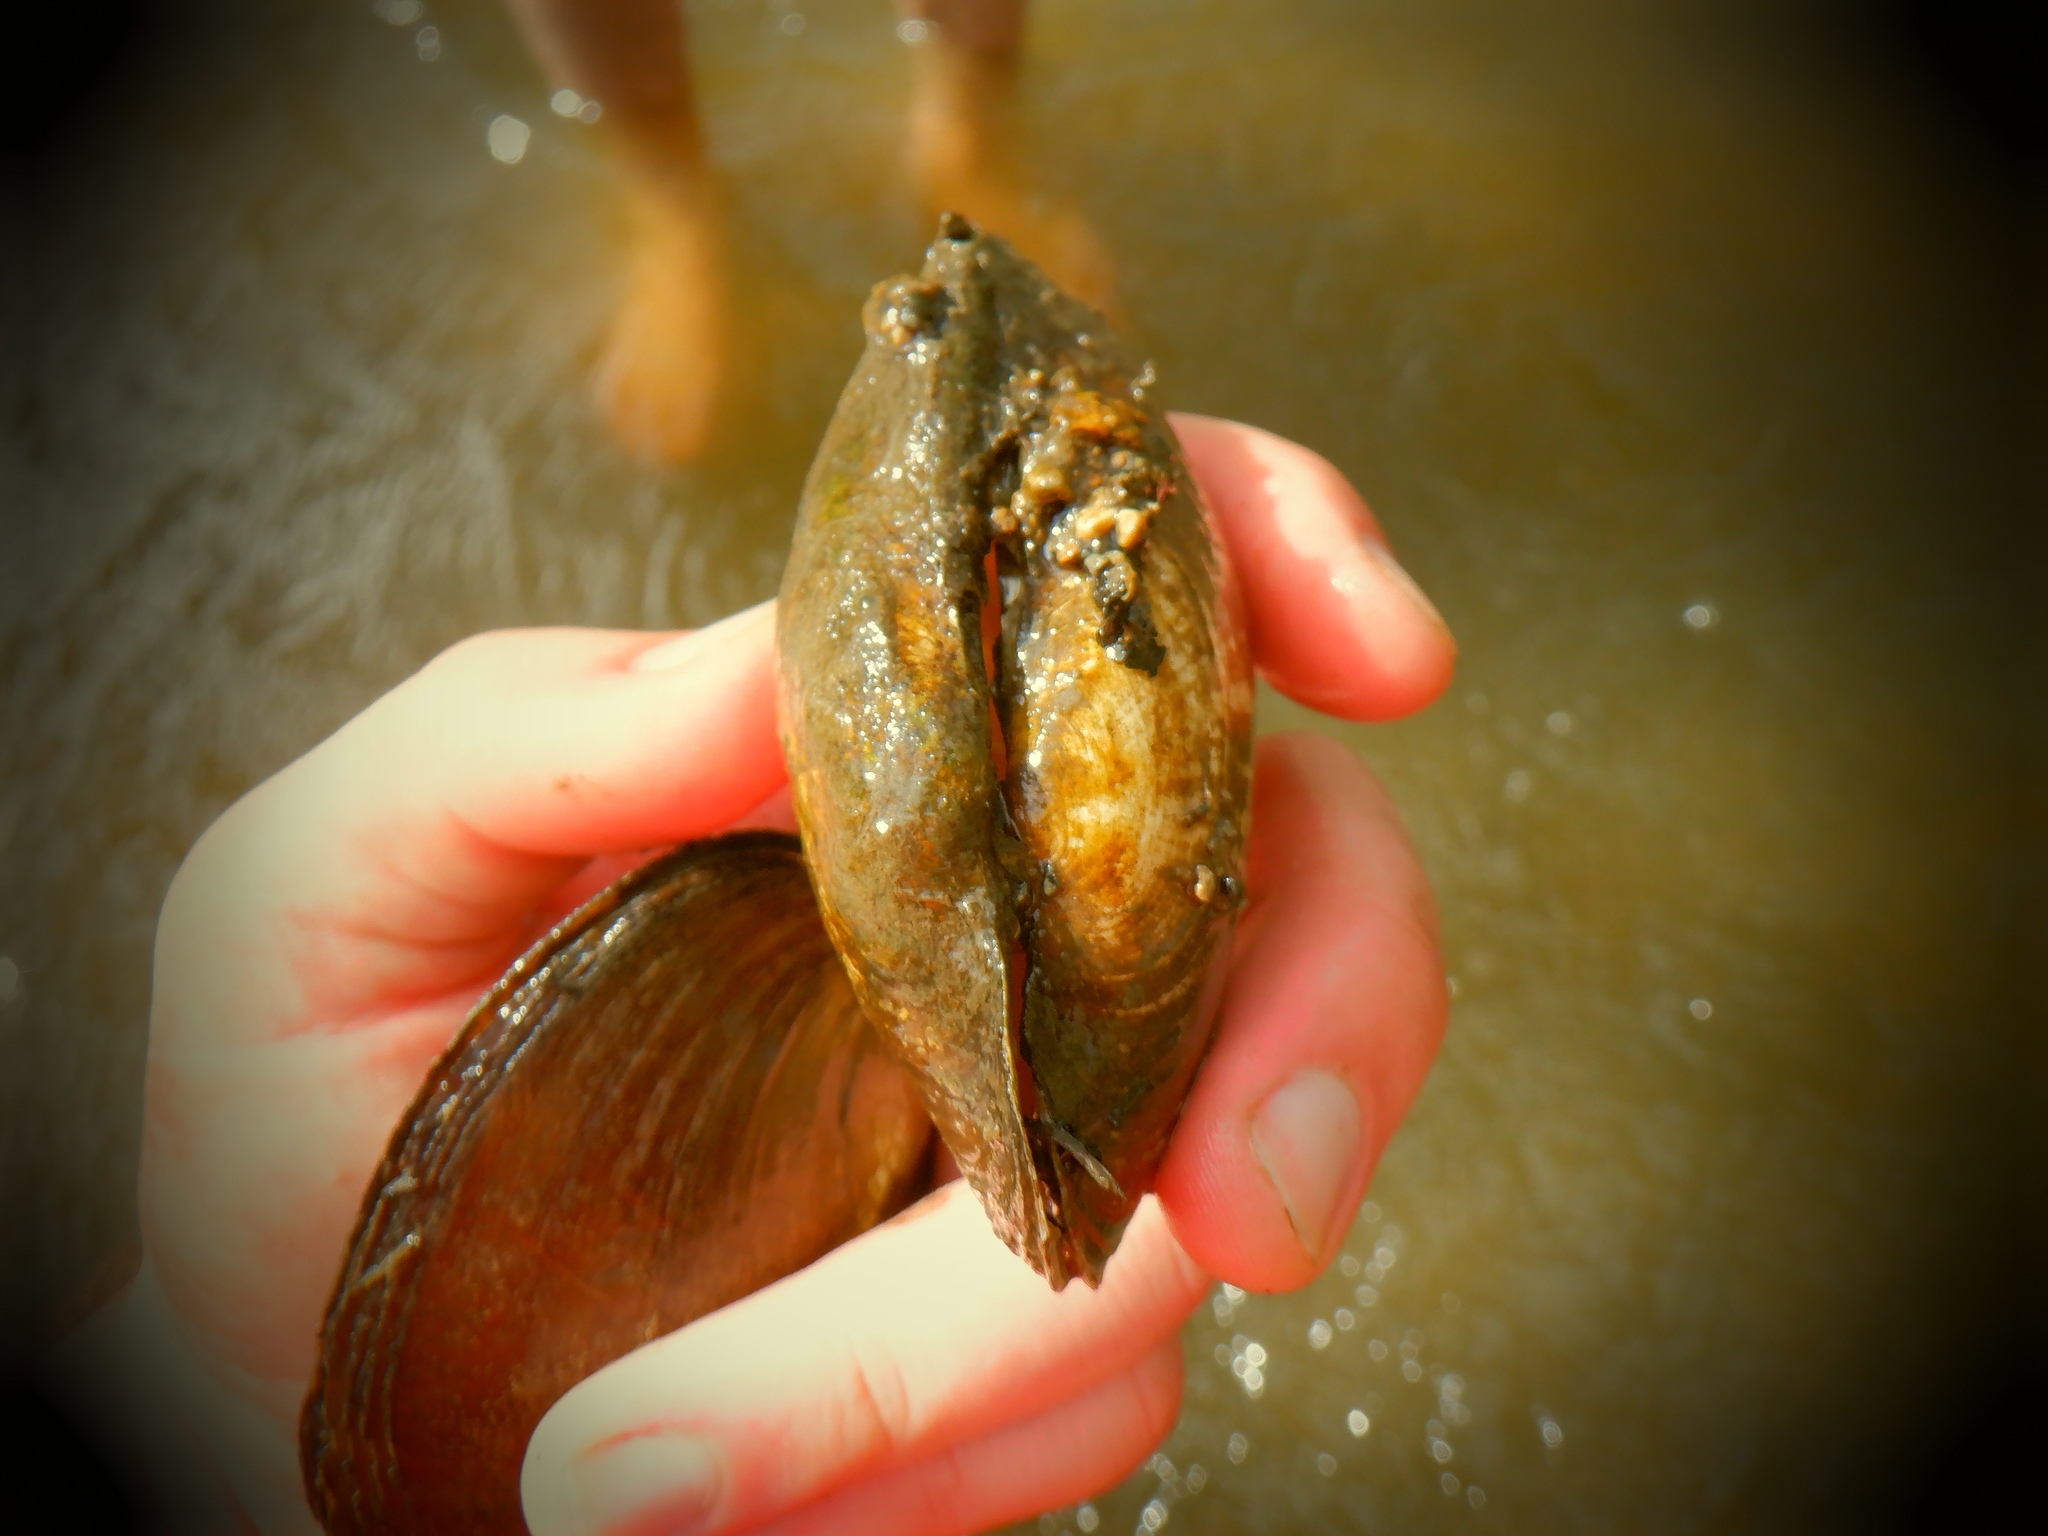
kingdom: Animalia
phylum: Mollusca
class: Bivalvia
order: Unionida
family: Unionidae
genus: Lampsilis
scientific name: Lampsilis siliquoidea
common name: Fatmucket
